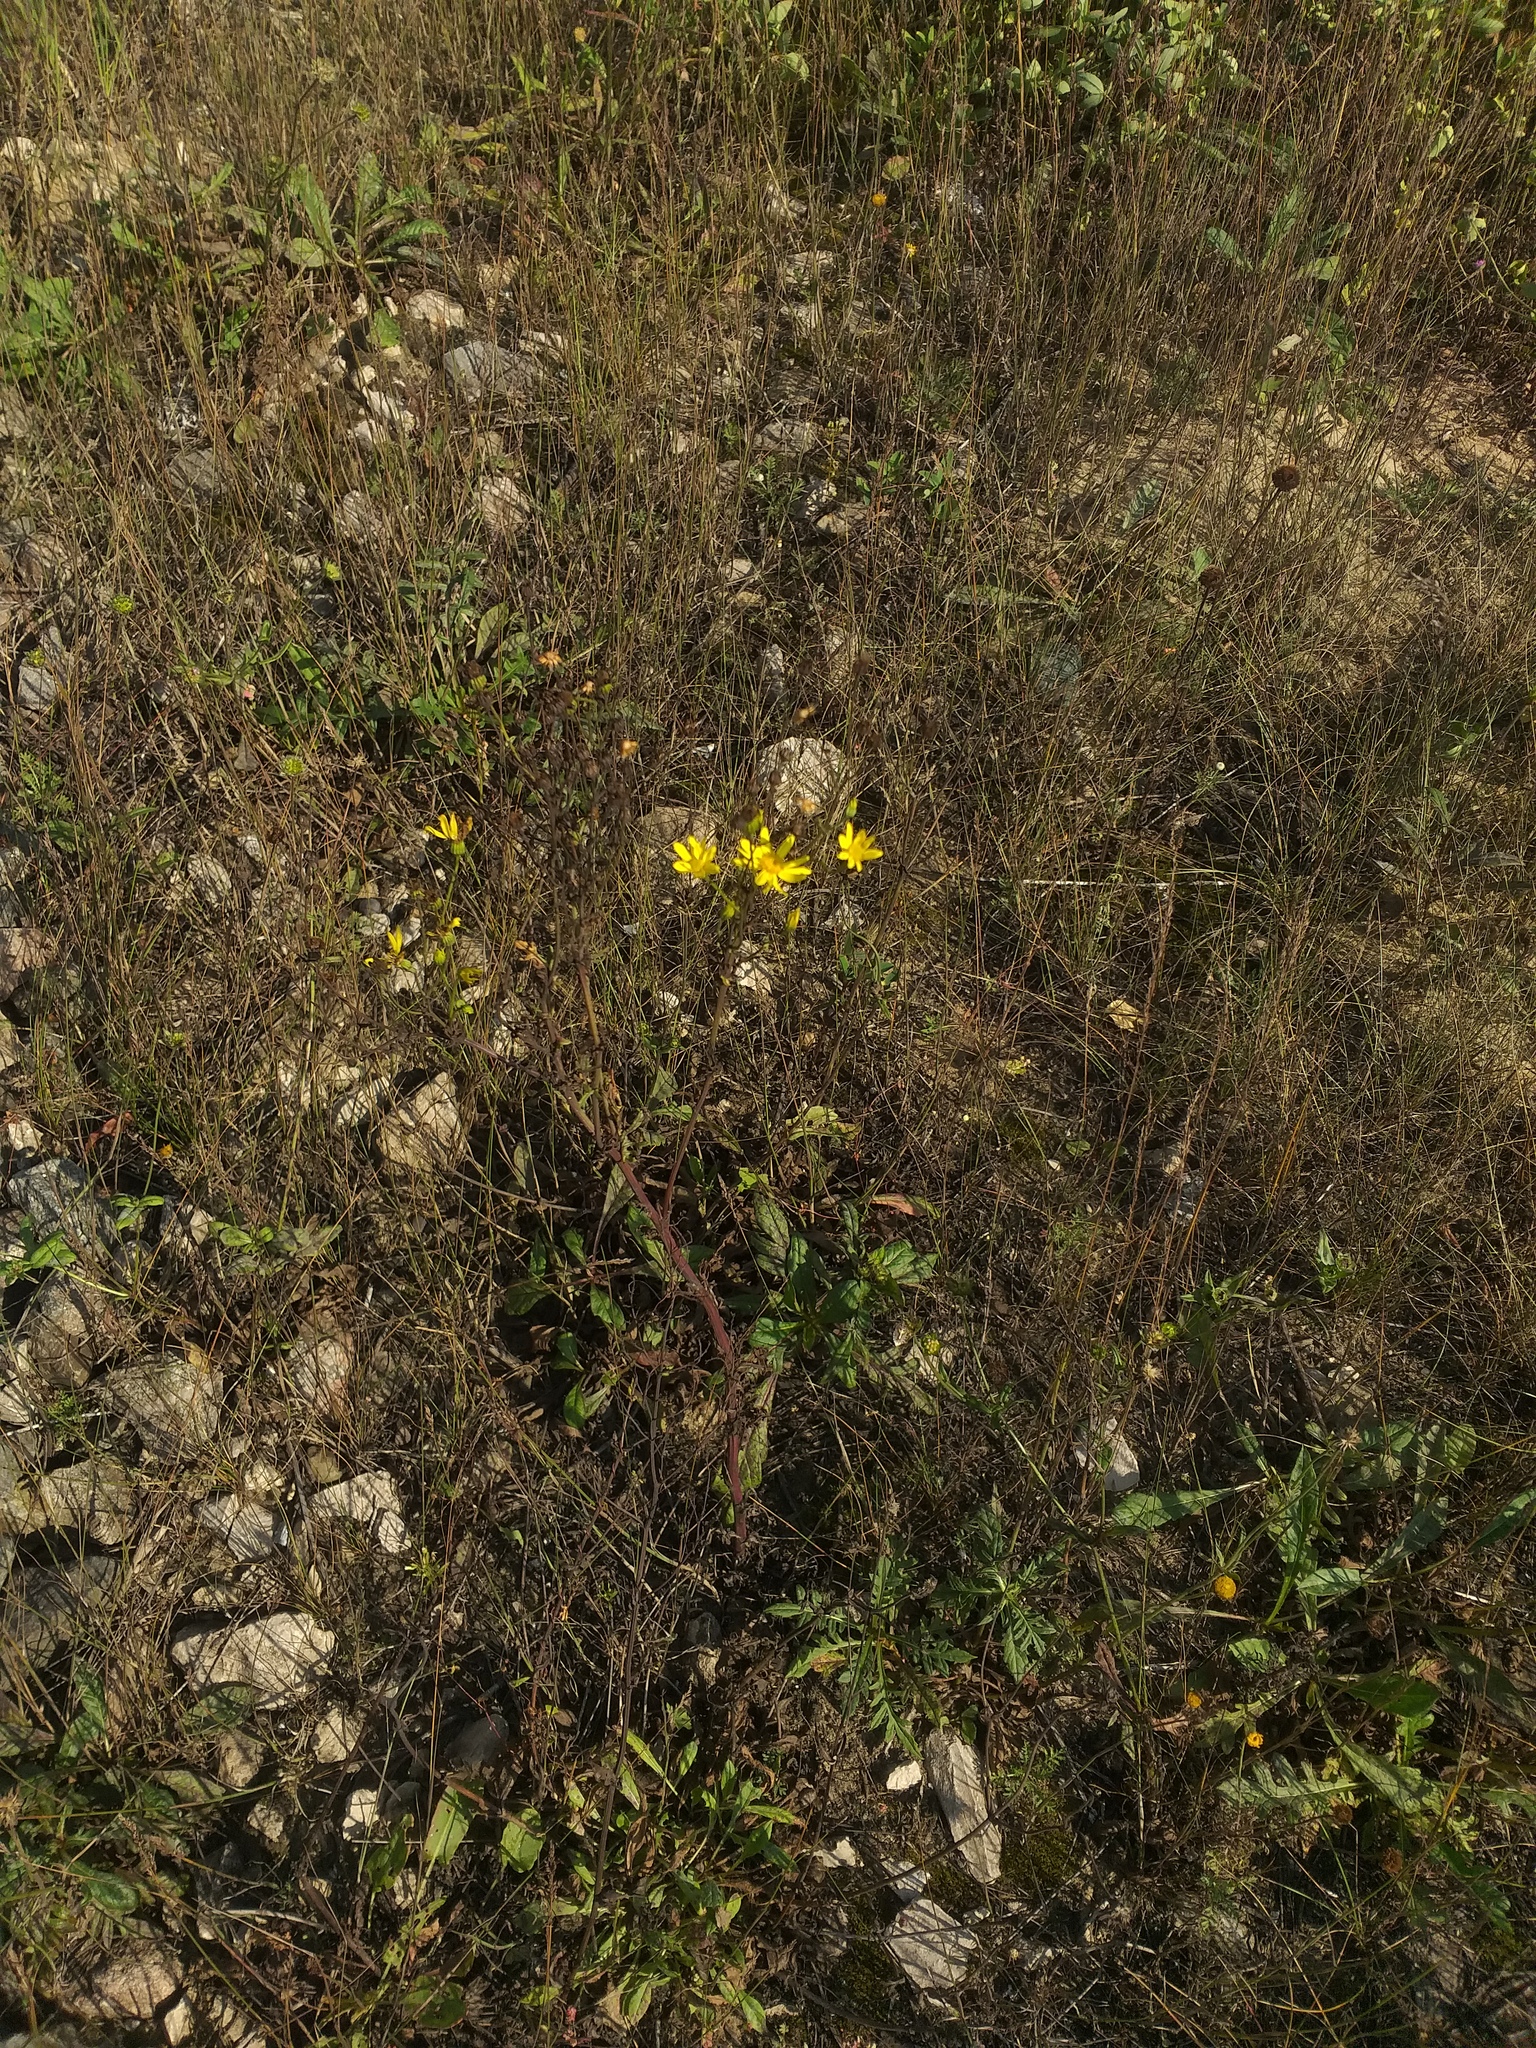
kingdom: Plantae
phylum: Tracheophyta
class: Magnoliopsida
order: Asterales
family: Asteraceae
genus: Jacobaea
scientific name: Jacobaea vulgaris
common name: Stinking willie
